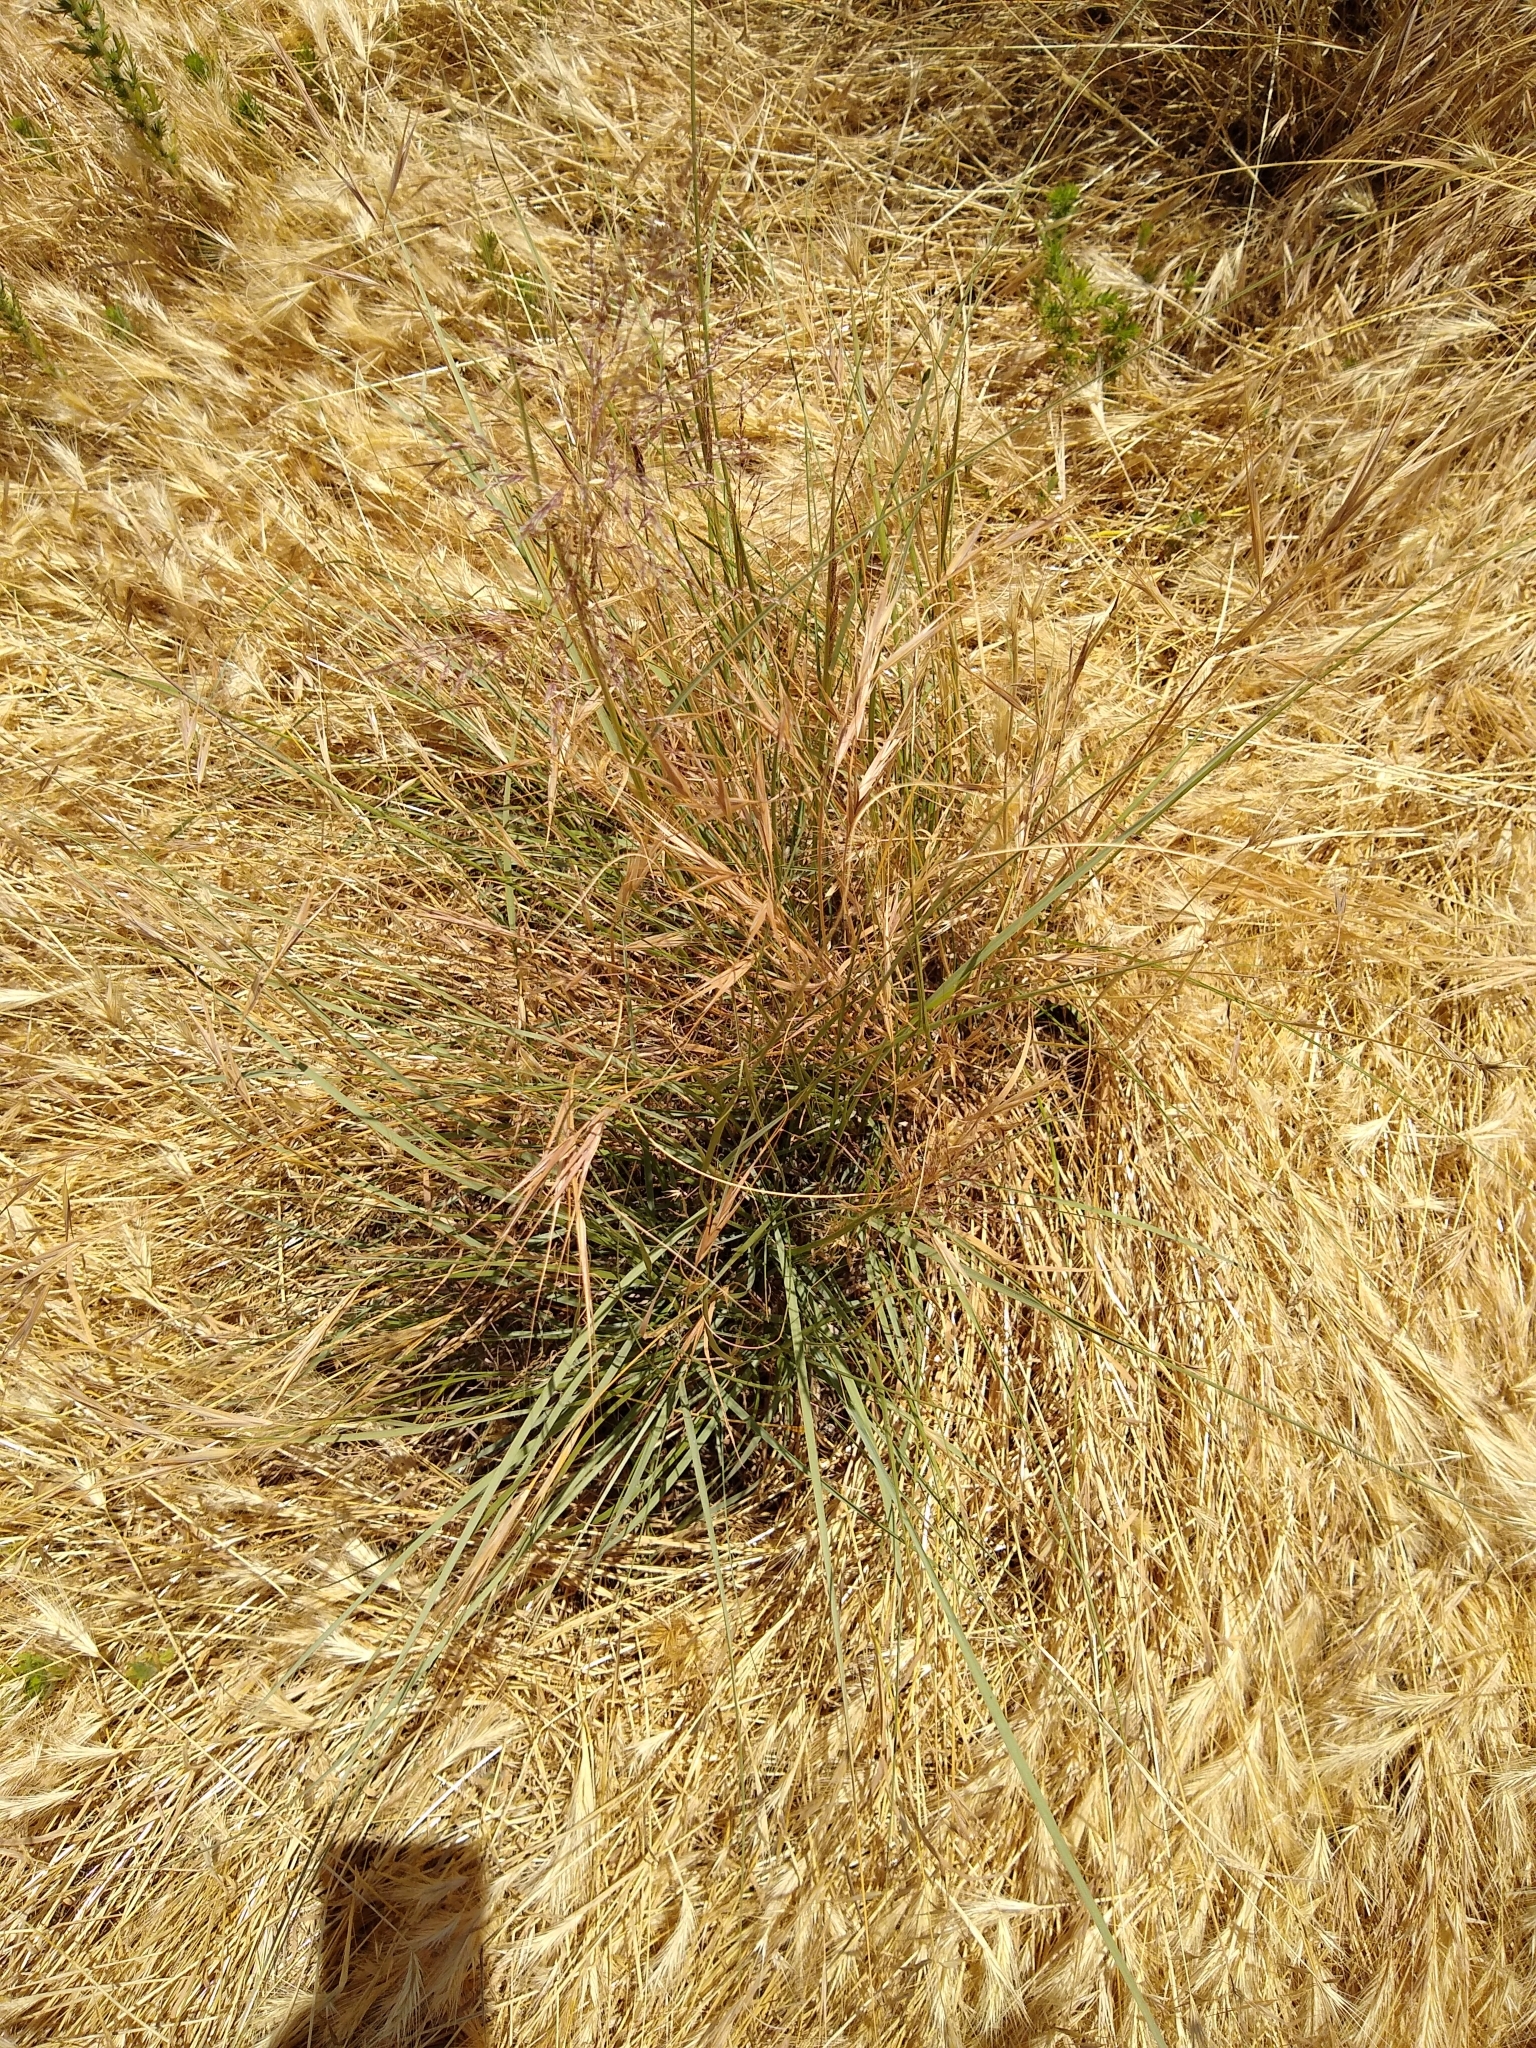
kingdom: Plantae
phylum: Tracheophyta
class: Liliopsida
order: Poales
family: Poaceae
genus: Sporobolus
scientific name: Sporobolus airoides
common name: Alkali sacaton
